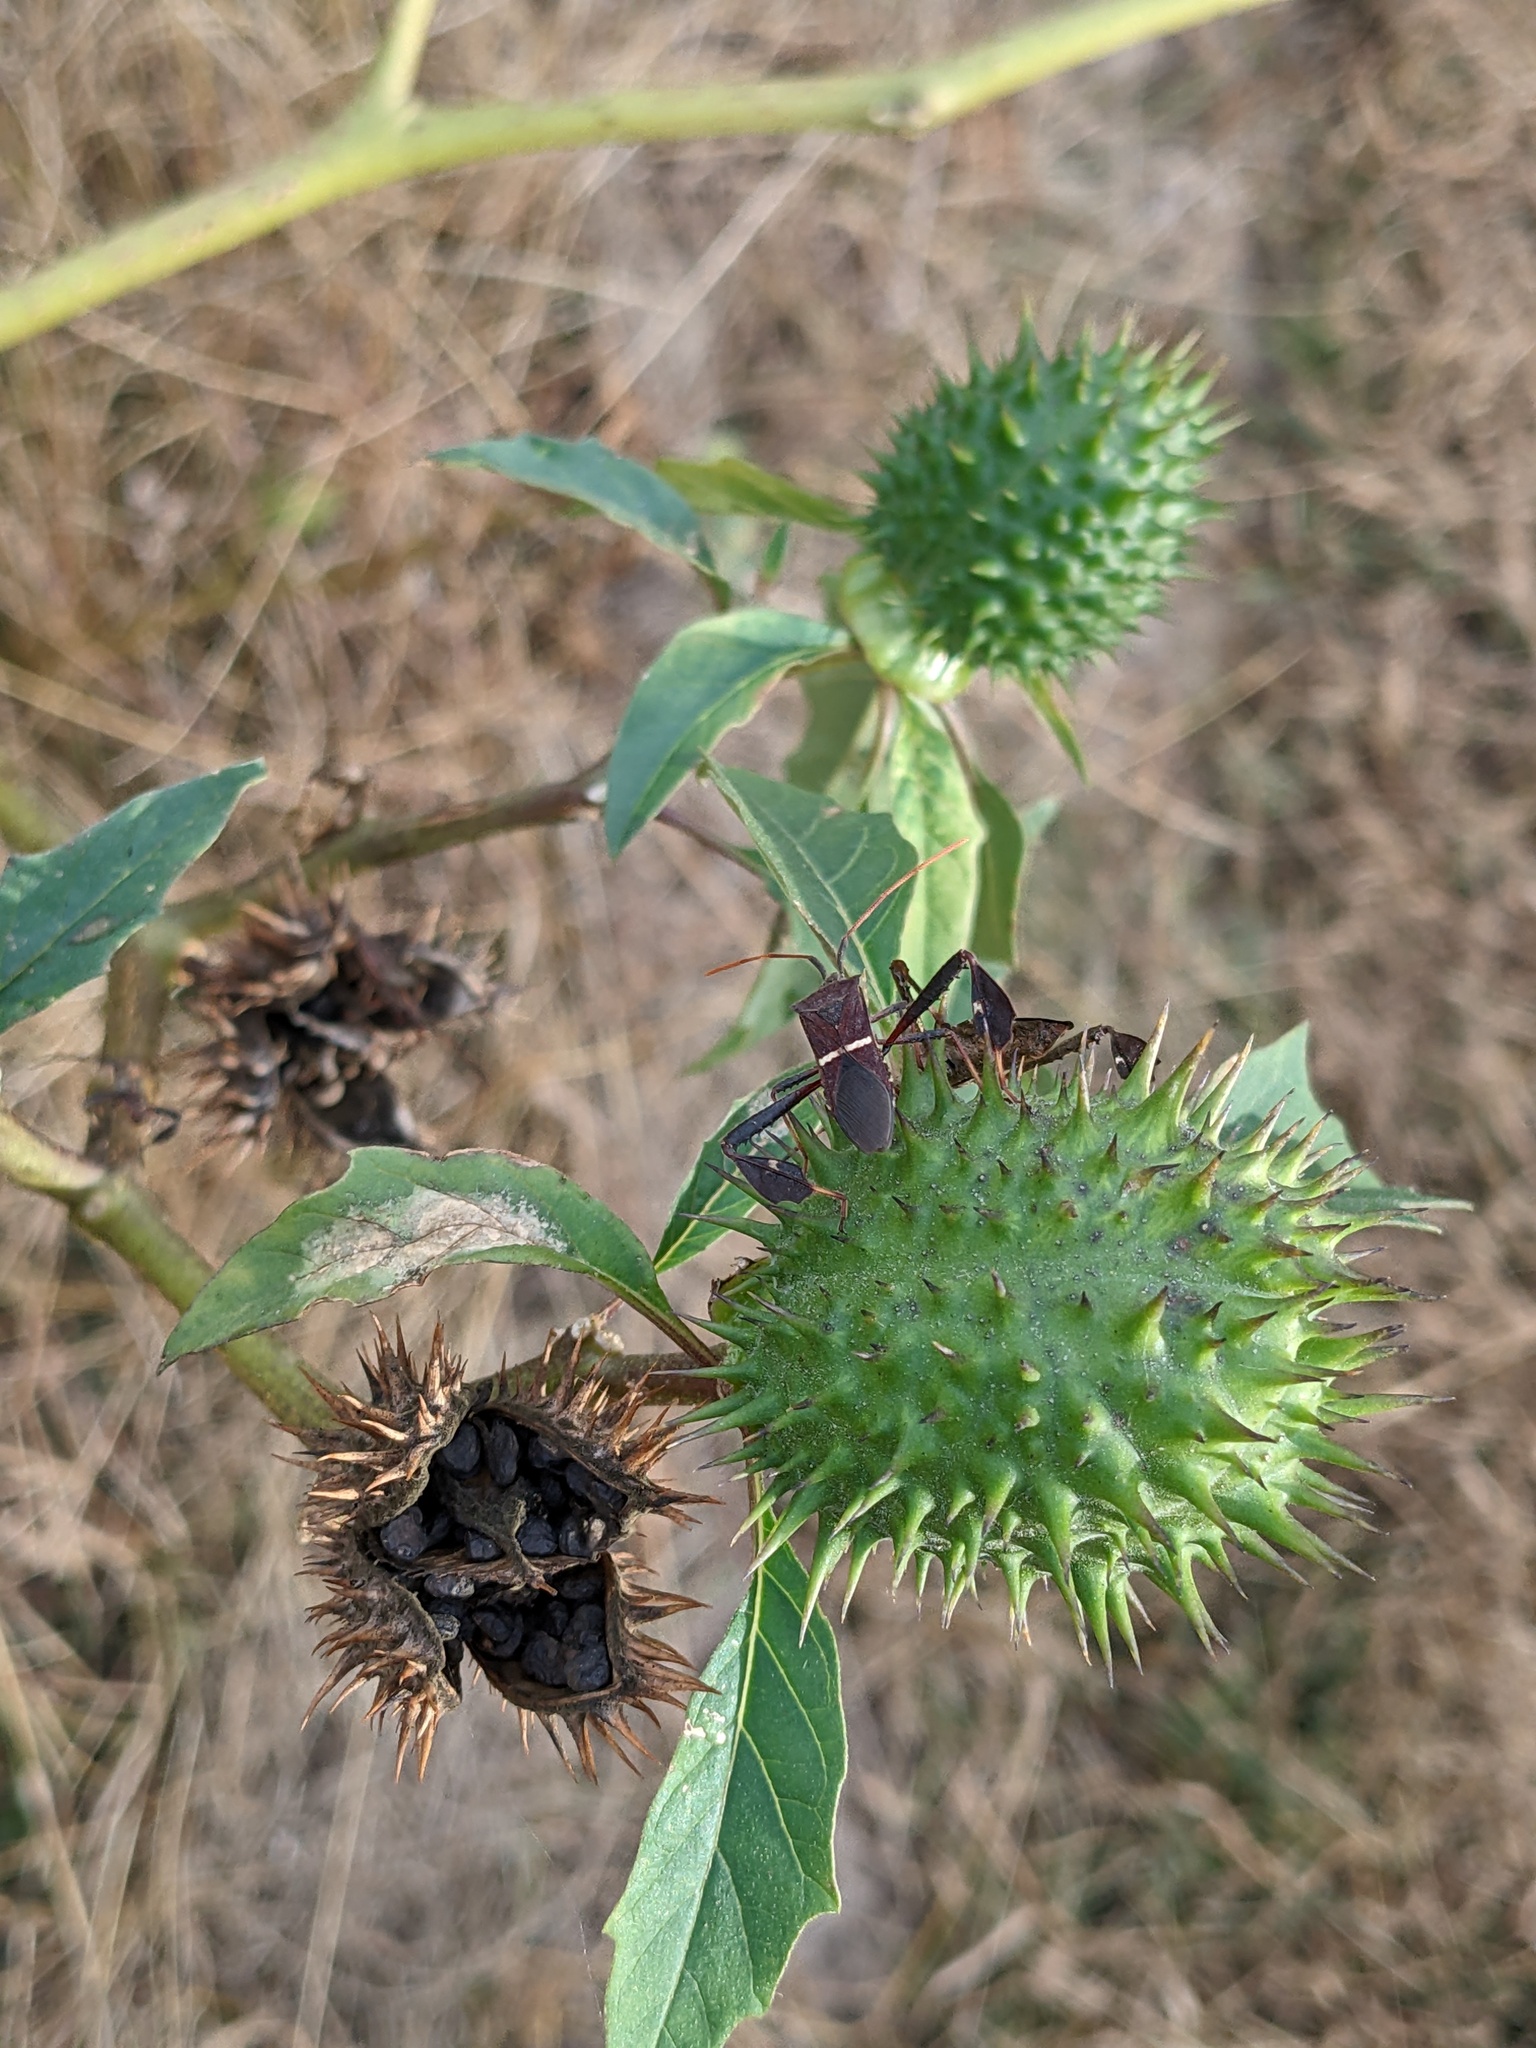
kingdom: Animalia
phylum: Arthropoda
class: Insecta
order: Hemiptera
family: Coreidae
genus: Leptoglossus
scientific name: Leptoglossus phyllopus
